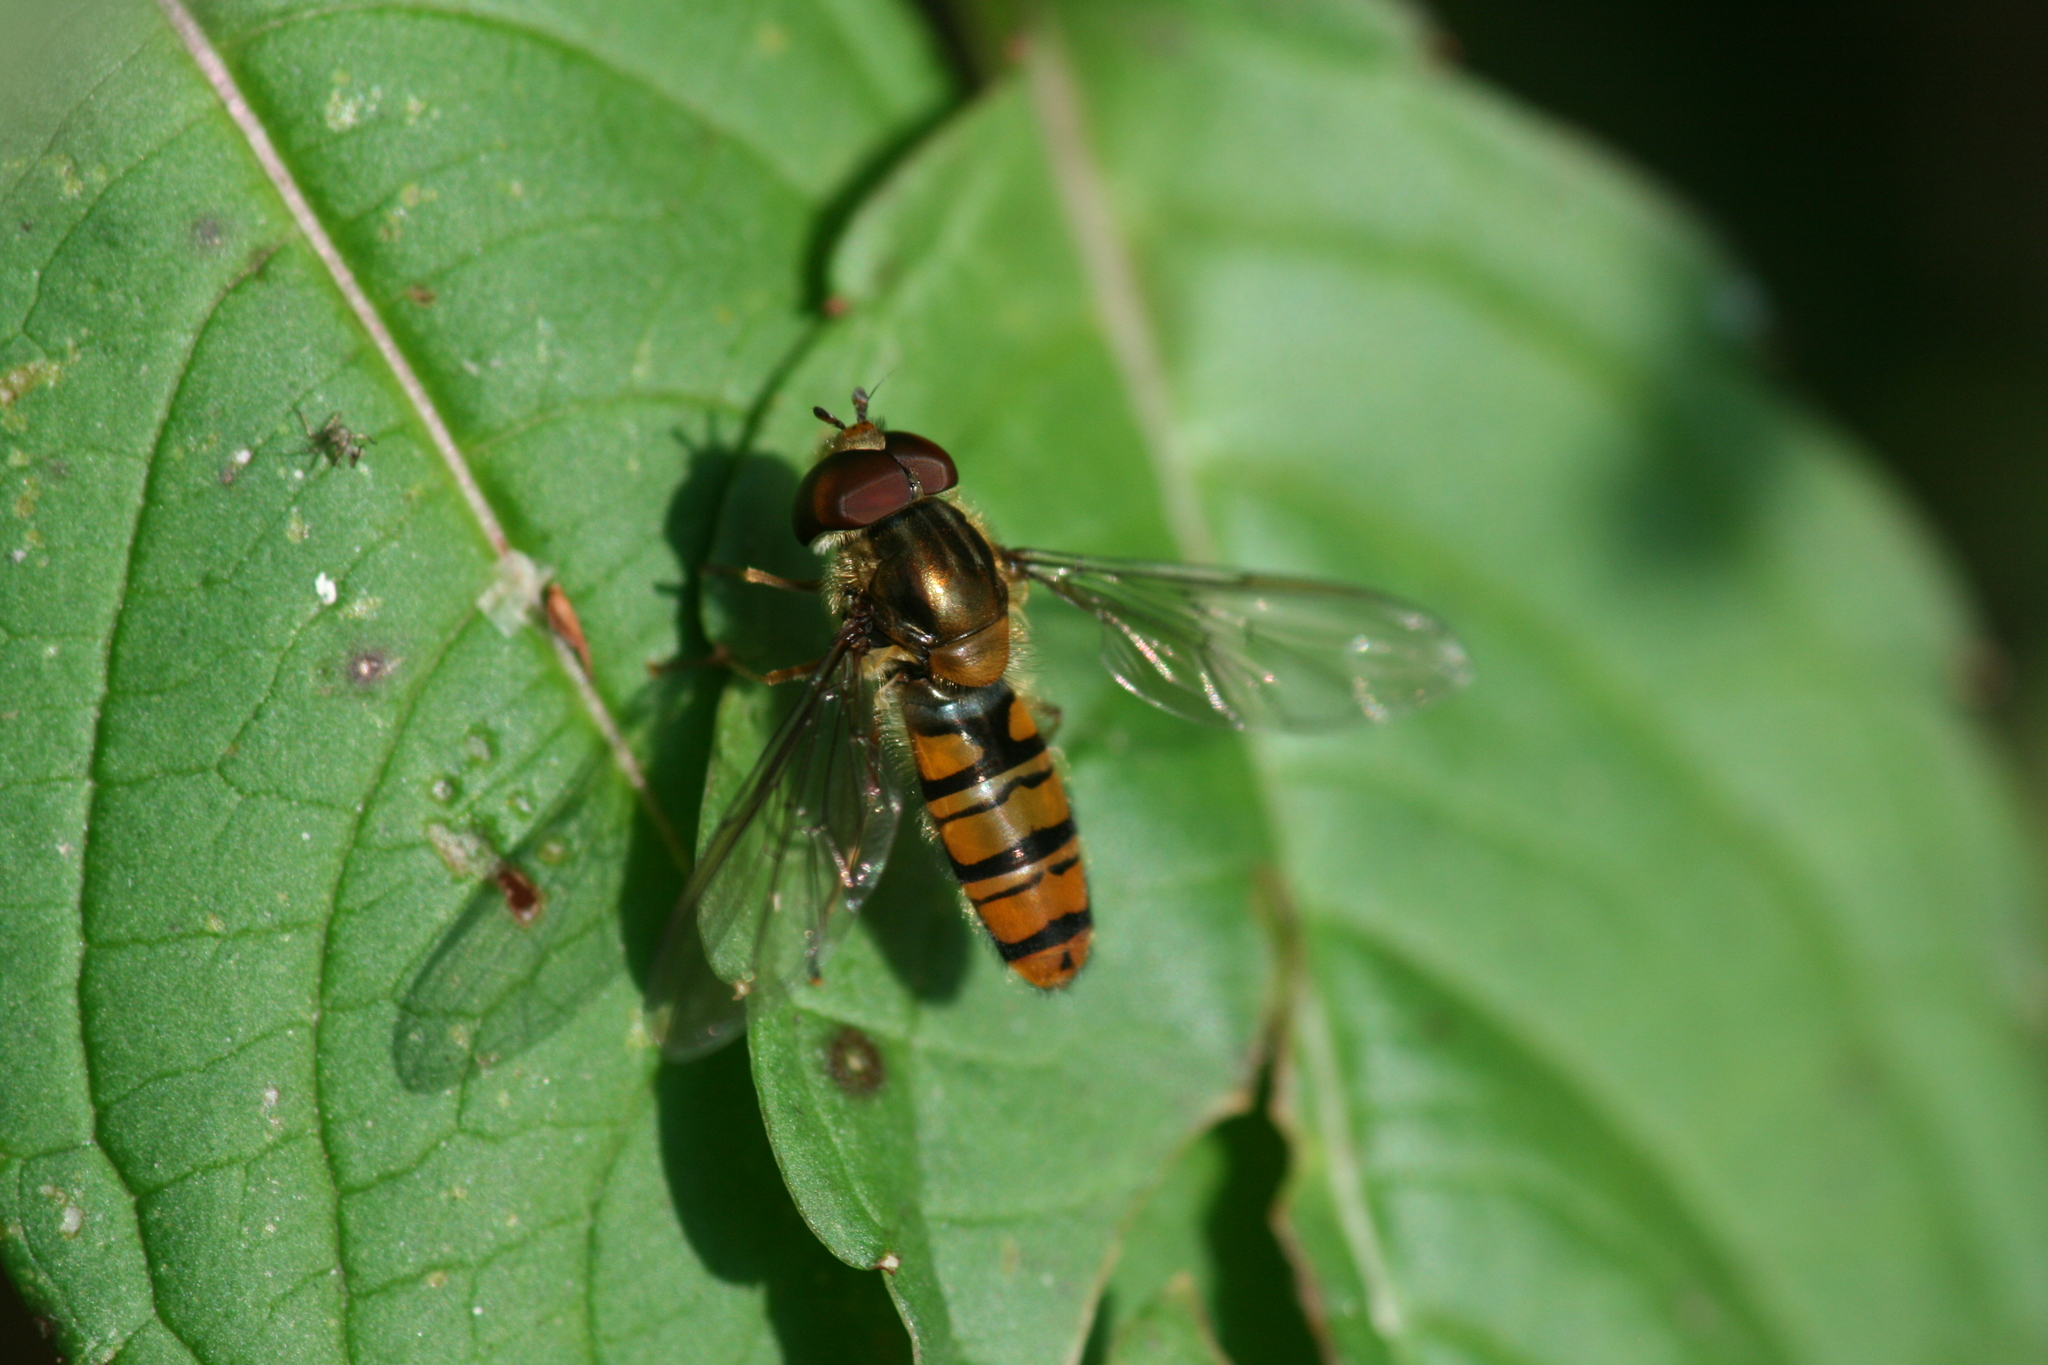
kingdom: Animalia
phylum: Arthropoda
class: Insecta
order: Diptera
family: Syrphidae
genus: Episyrphus
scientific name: Episyrphus balteatus
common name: Marmalade hoverfly
